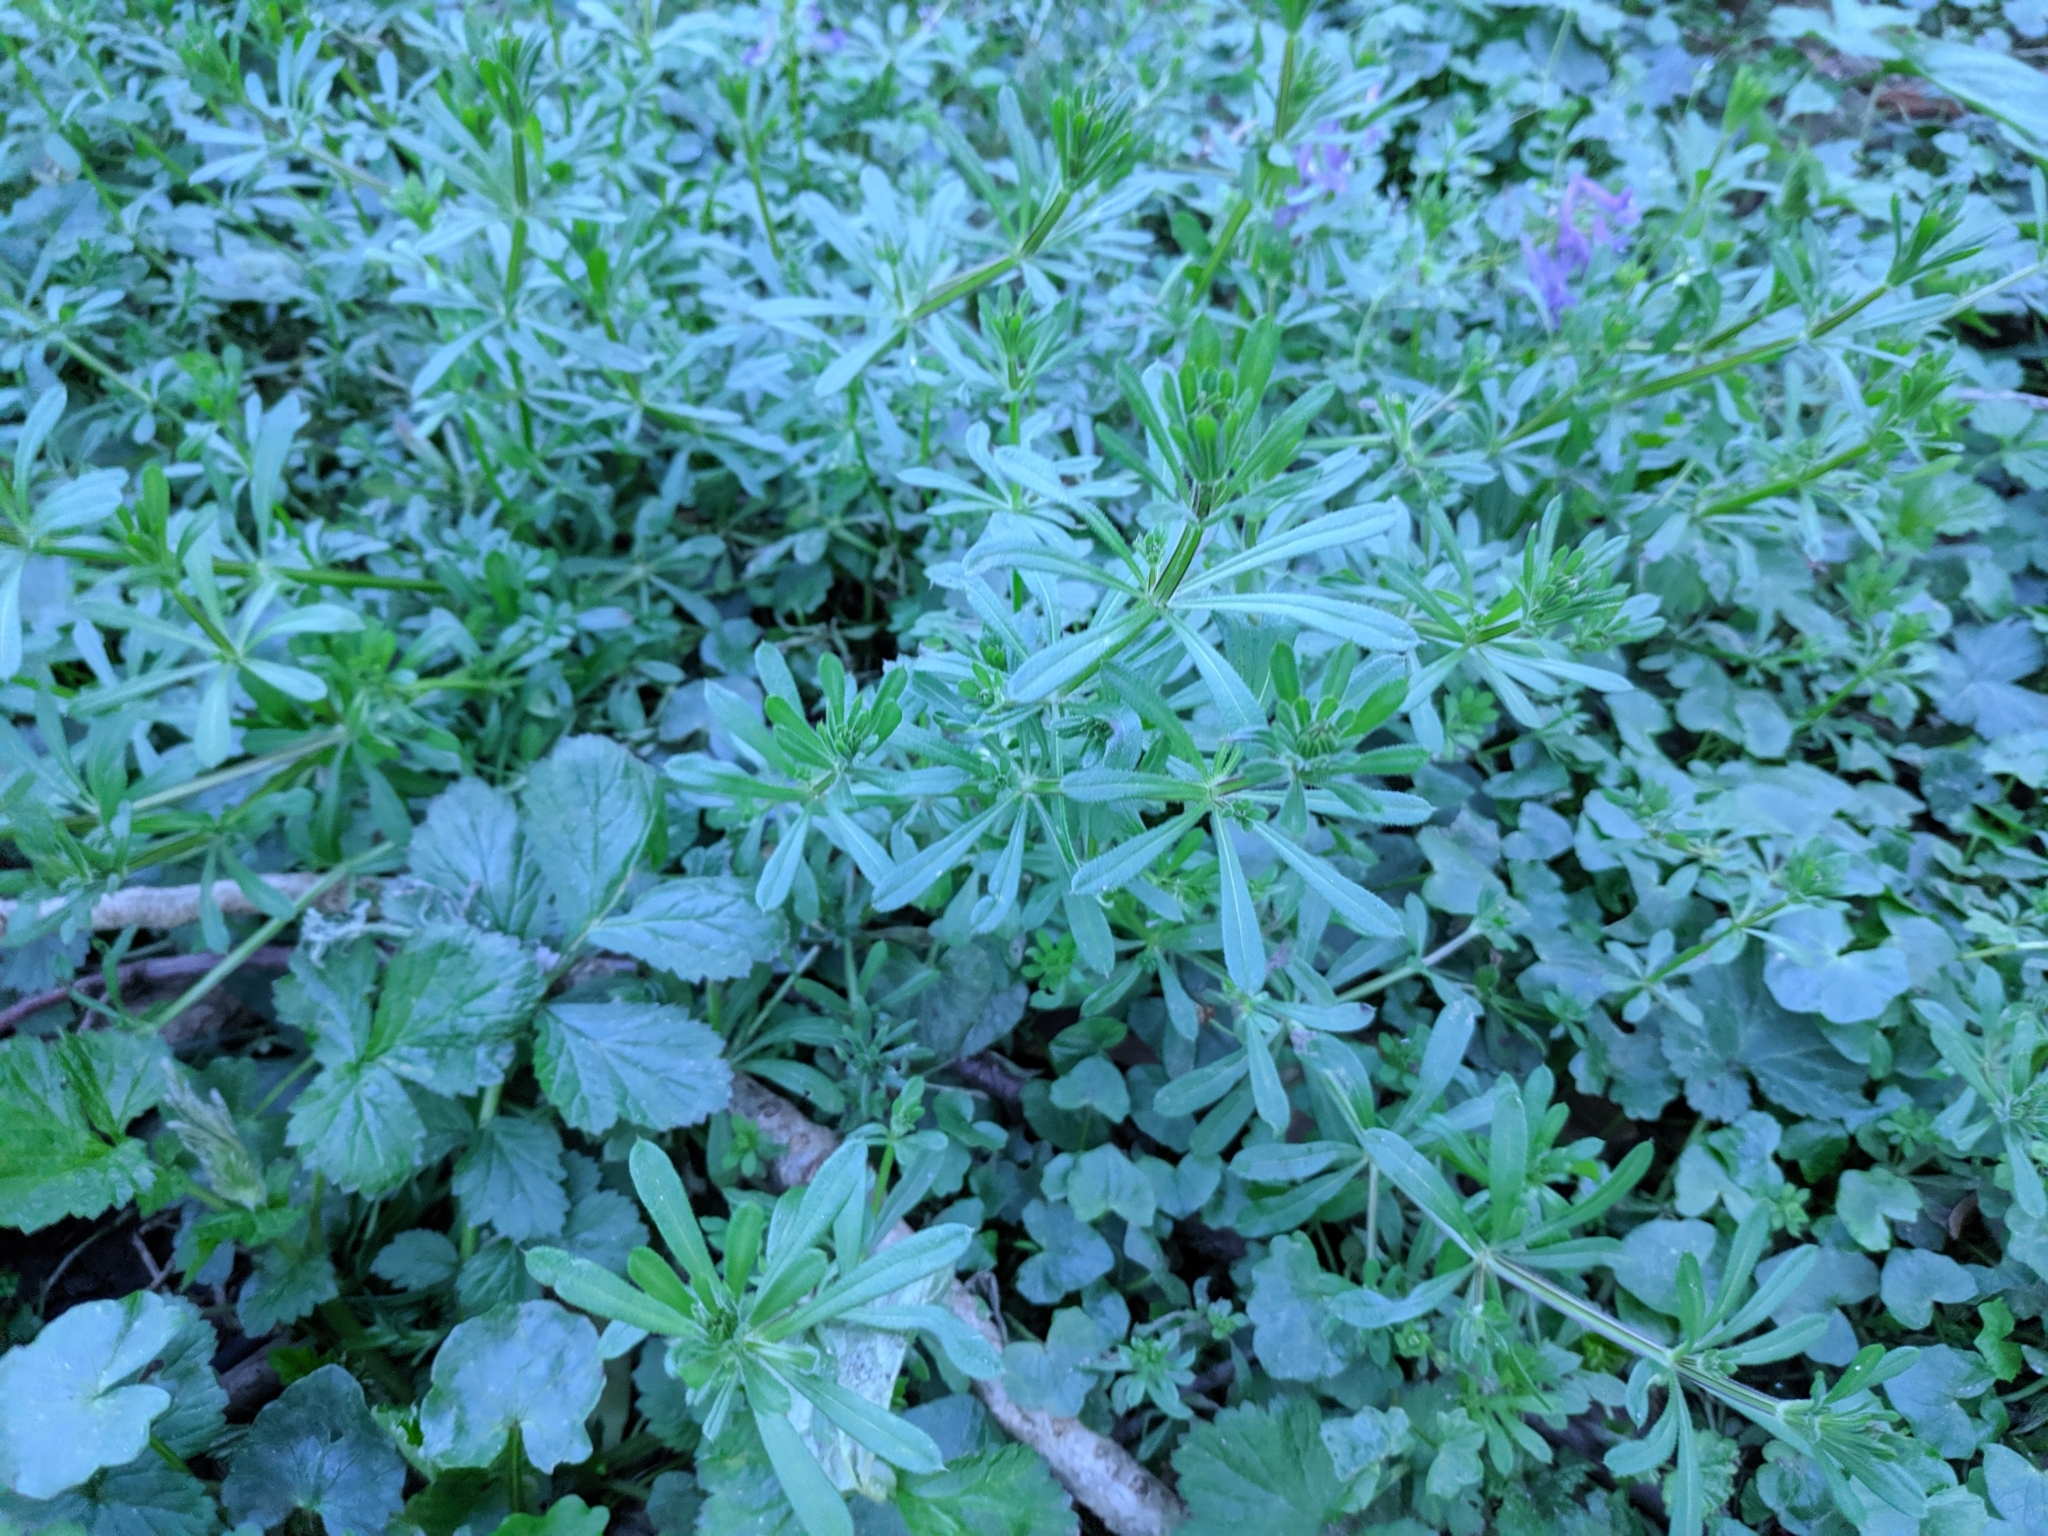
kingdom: Plantae
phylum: Tracheophyta
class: Magnoliopsida
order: Gentianales
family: Rubiaceae
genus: Galium
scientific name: Galium aparine
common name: Cleavers
